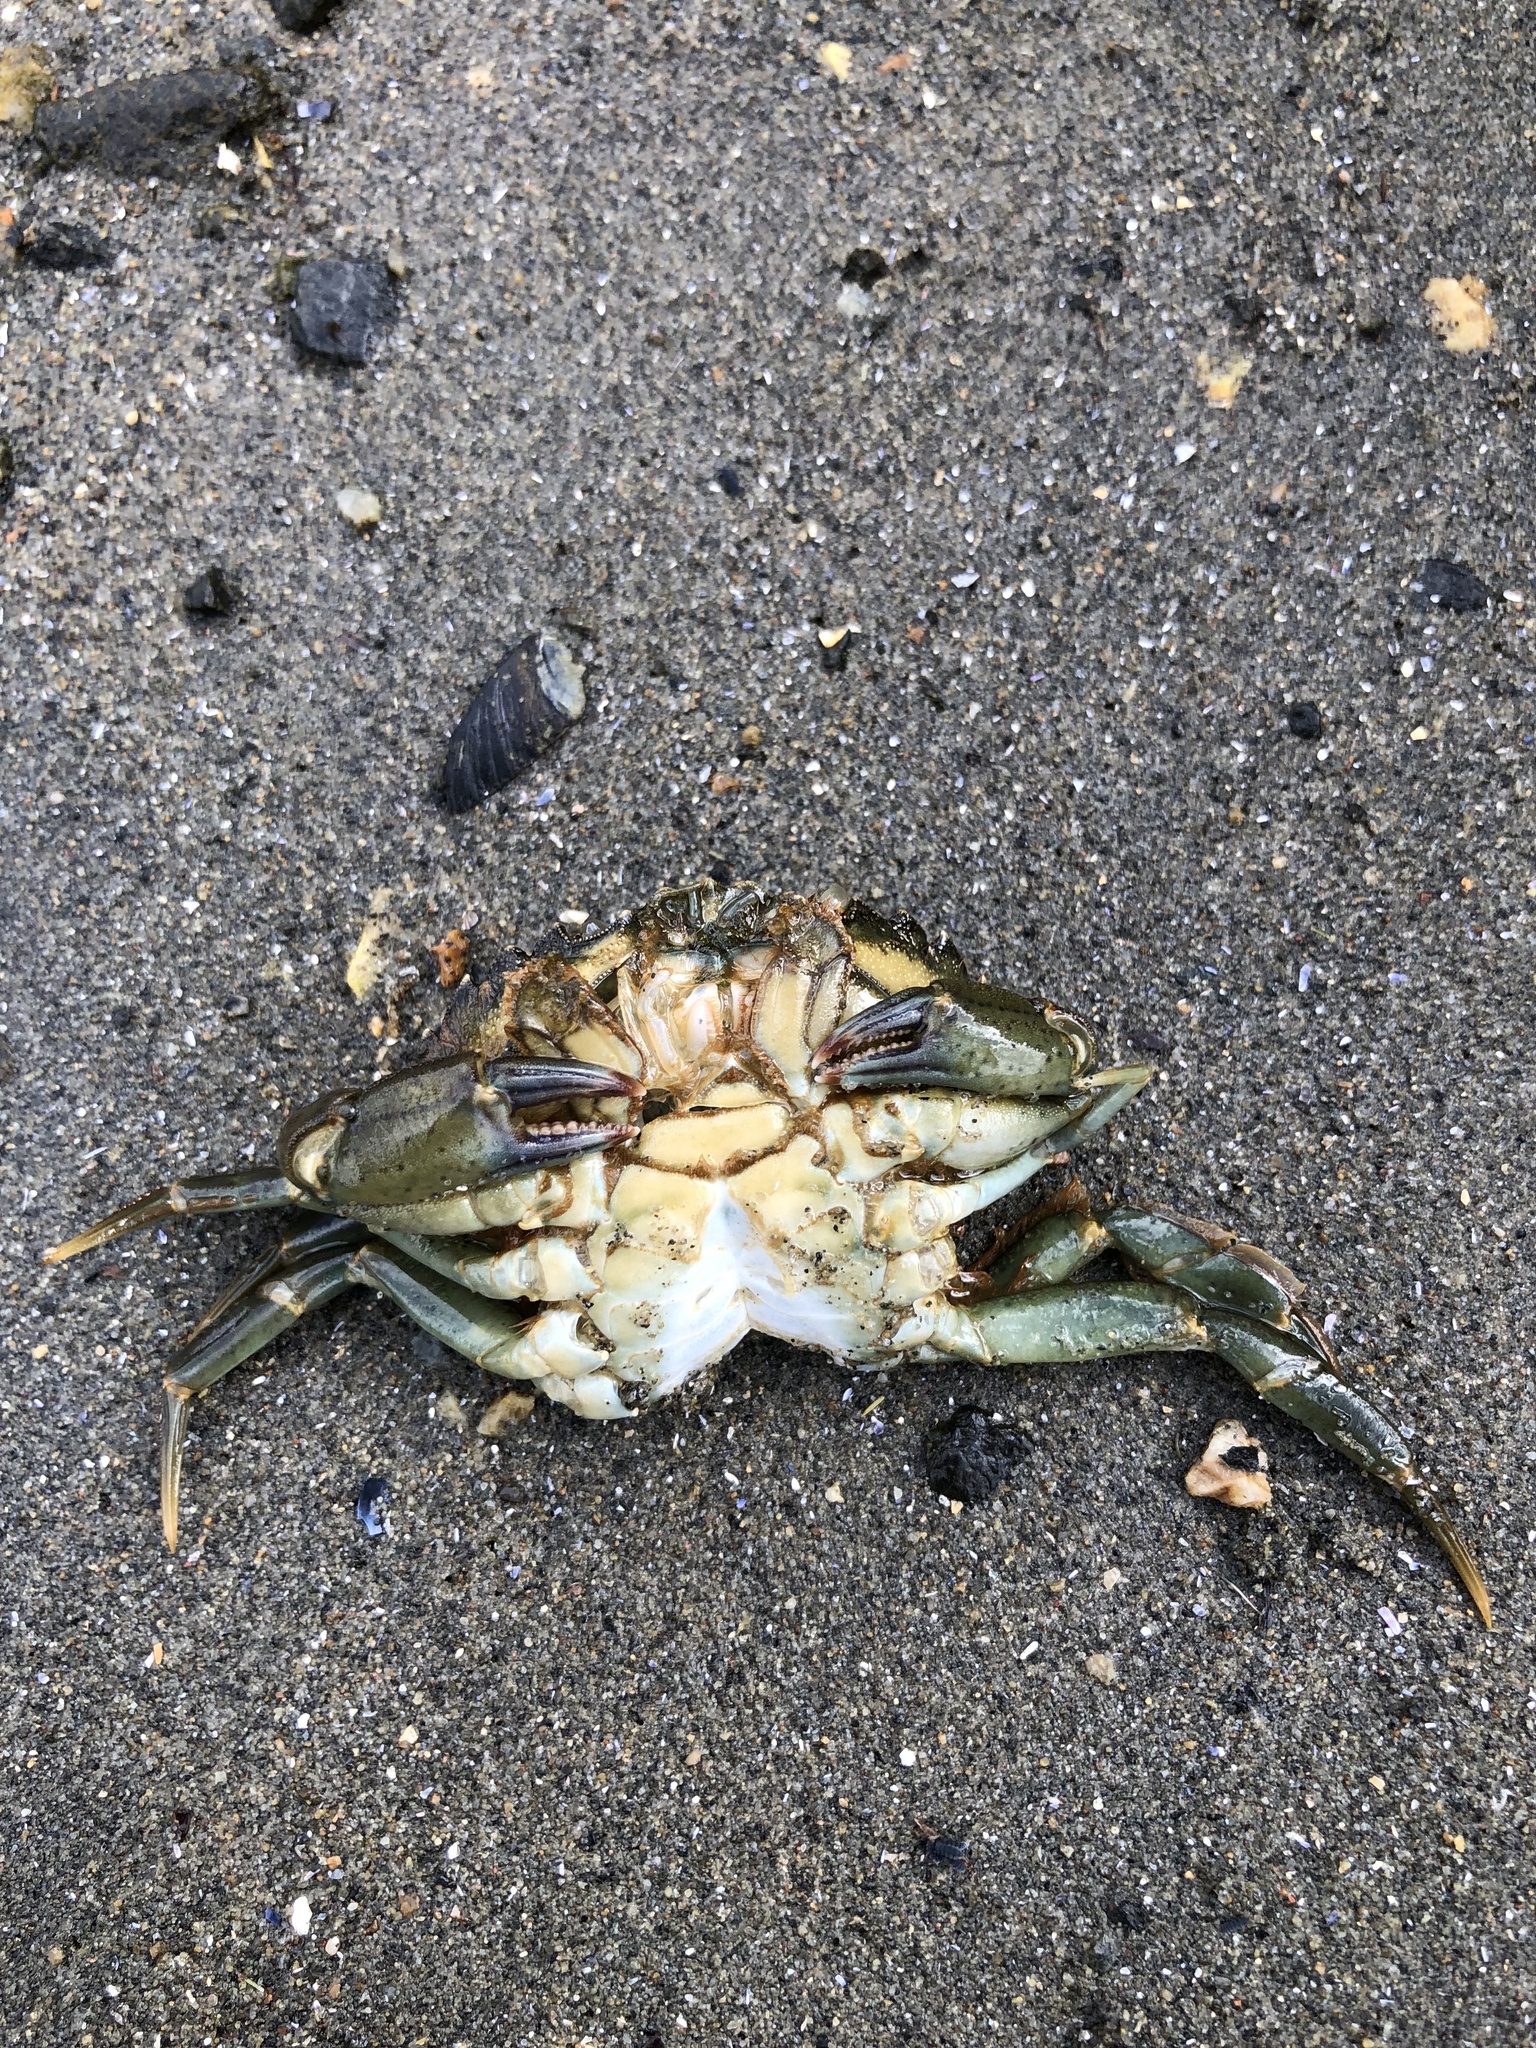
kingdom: Animalia
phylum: Arthropoda
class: Malacostraca
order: Decapoda
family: Carcinidae
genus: Carcinus
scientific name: Carcinus maenas
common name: European green crab
